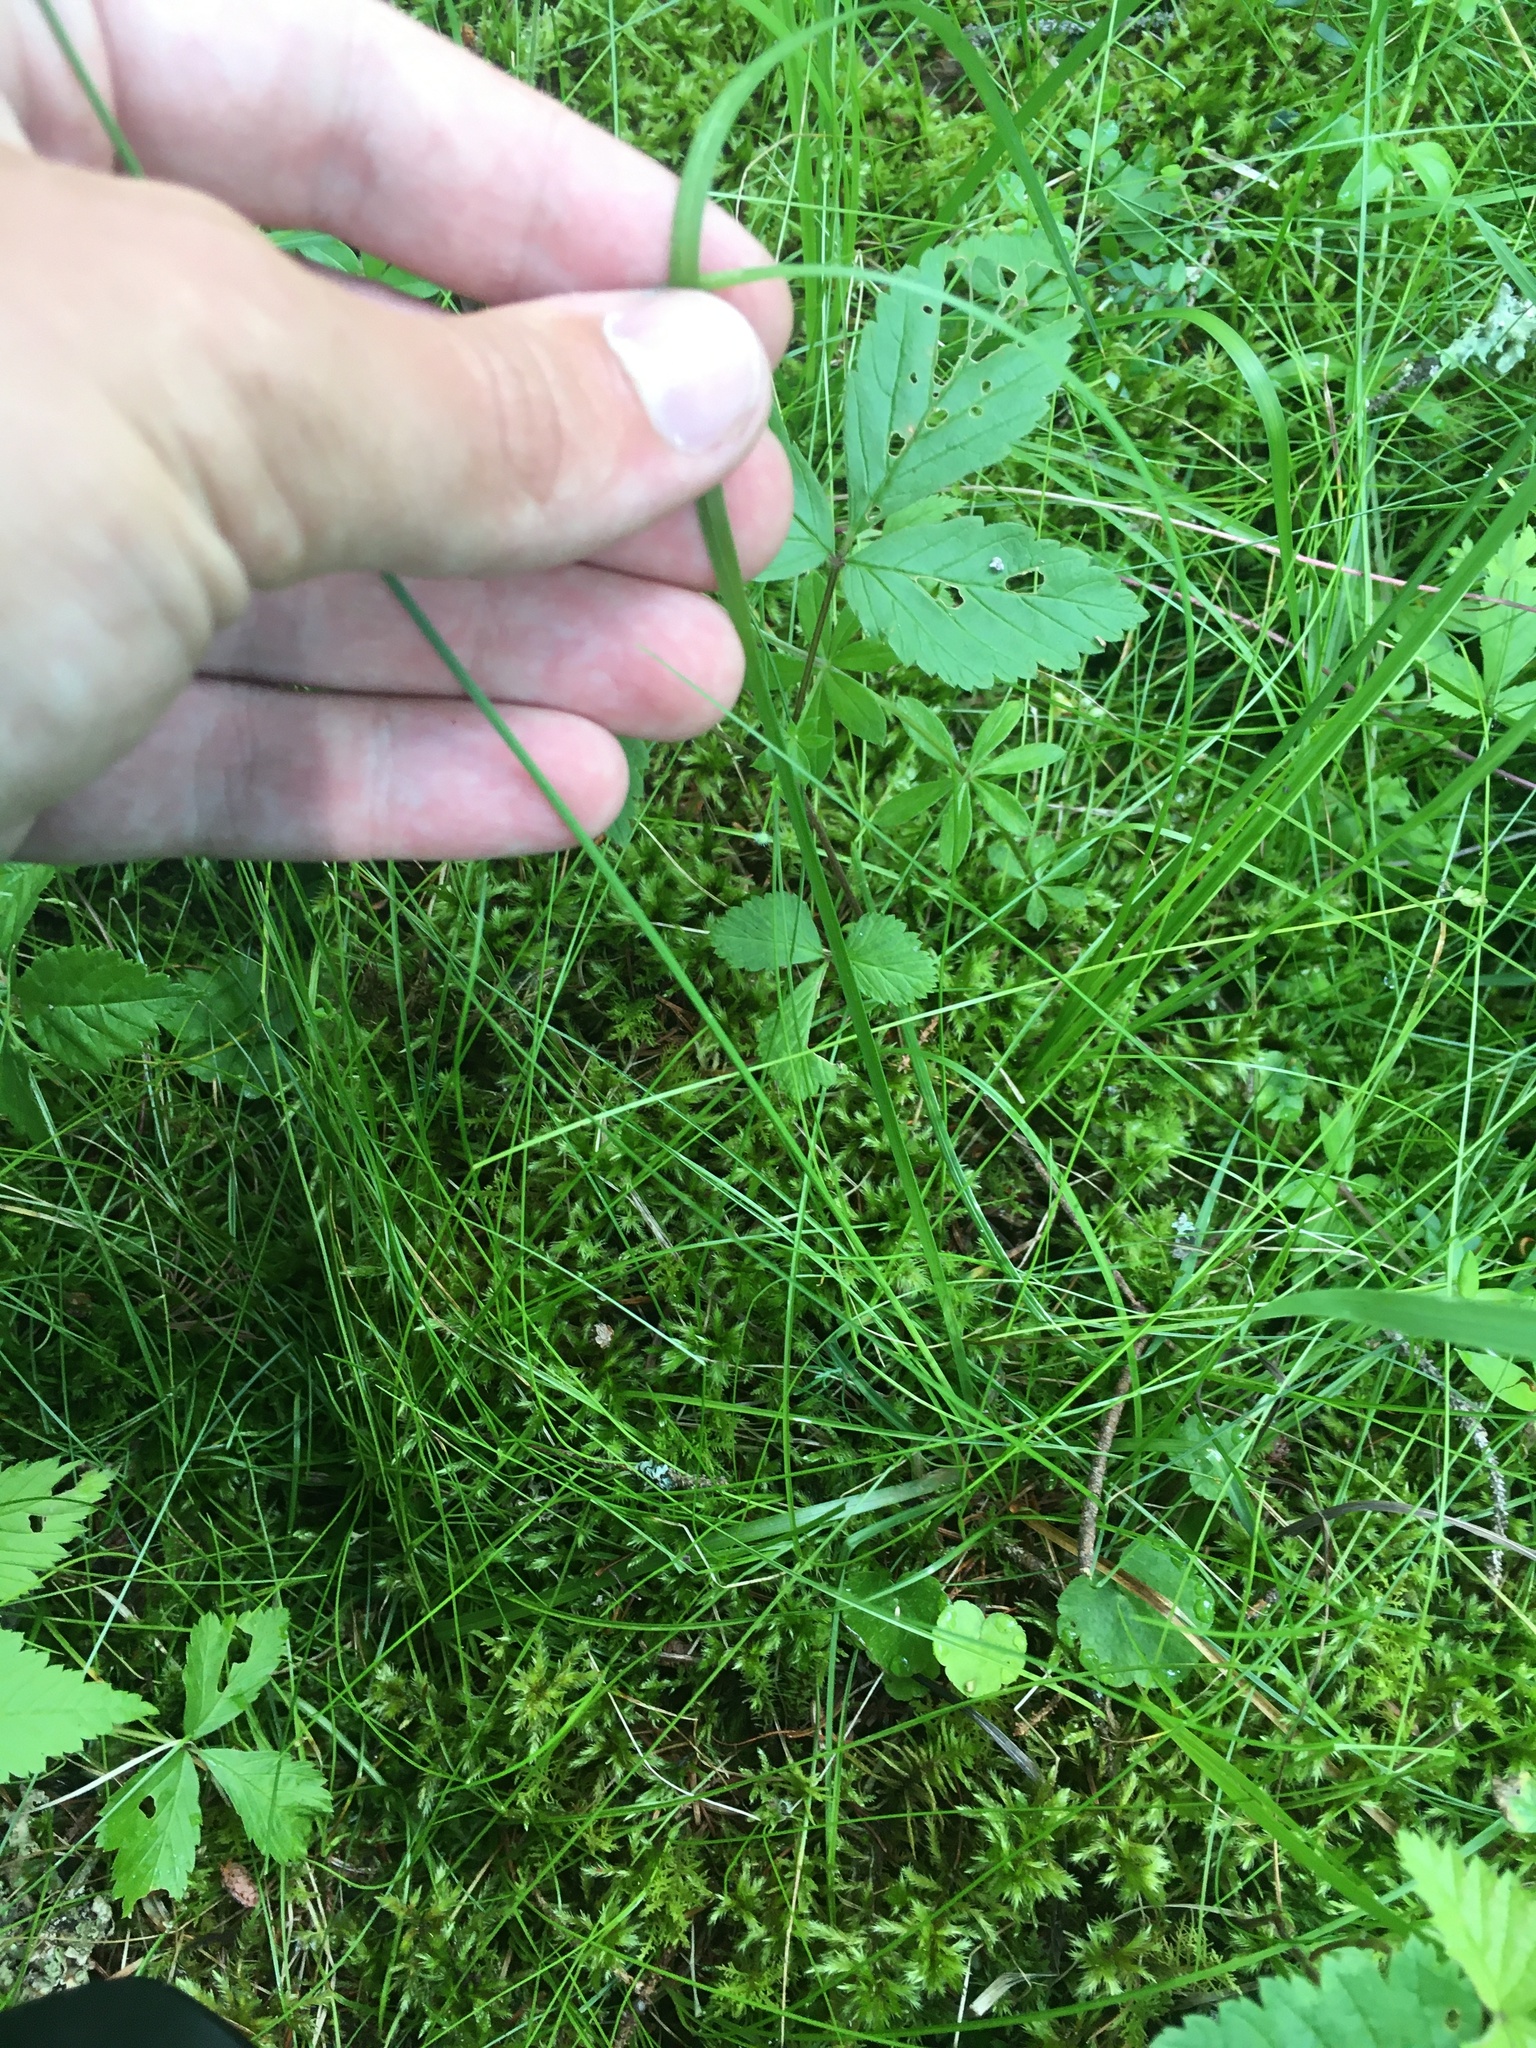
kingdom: Plantae
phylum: Tracheophyta
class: Liliopsida
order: Poales
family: Cyperaceae
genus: Carex
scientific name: Carex aurea
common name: Golden sedge
